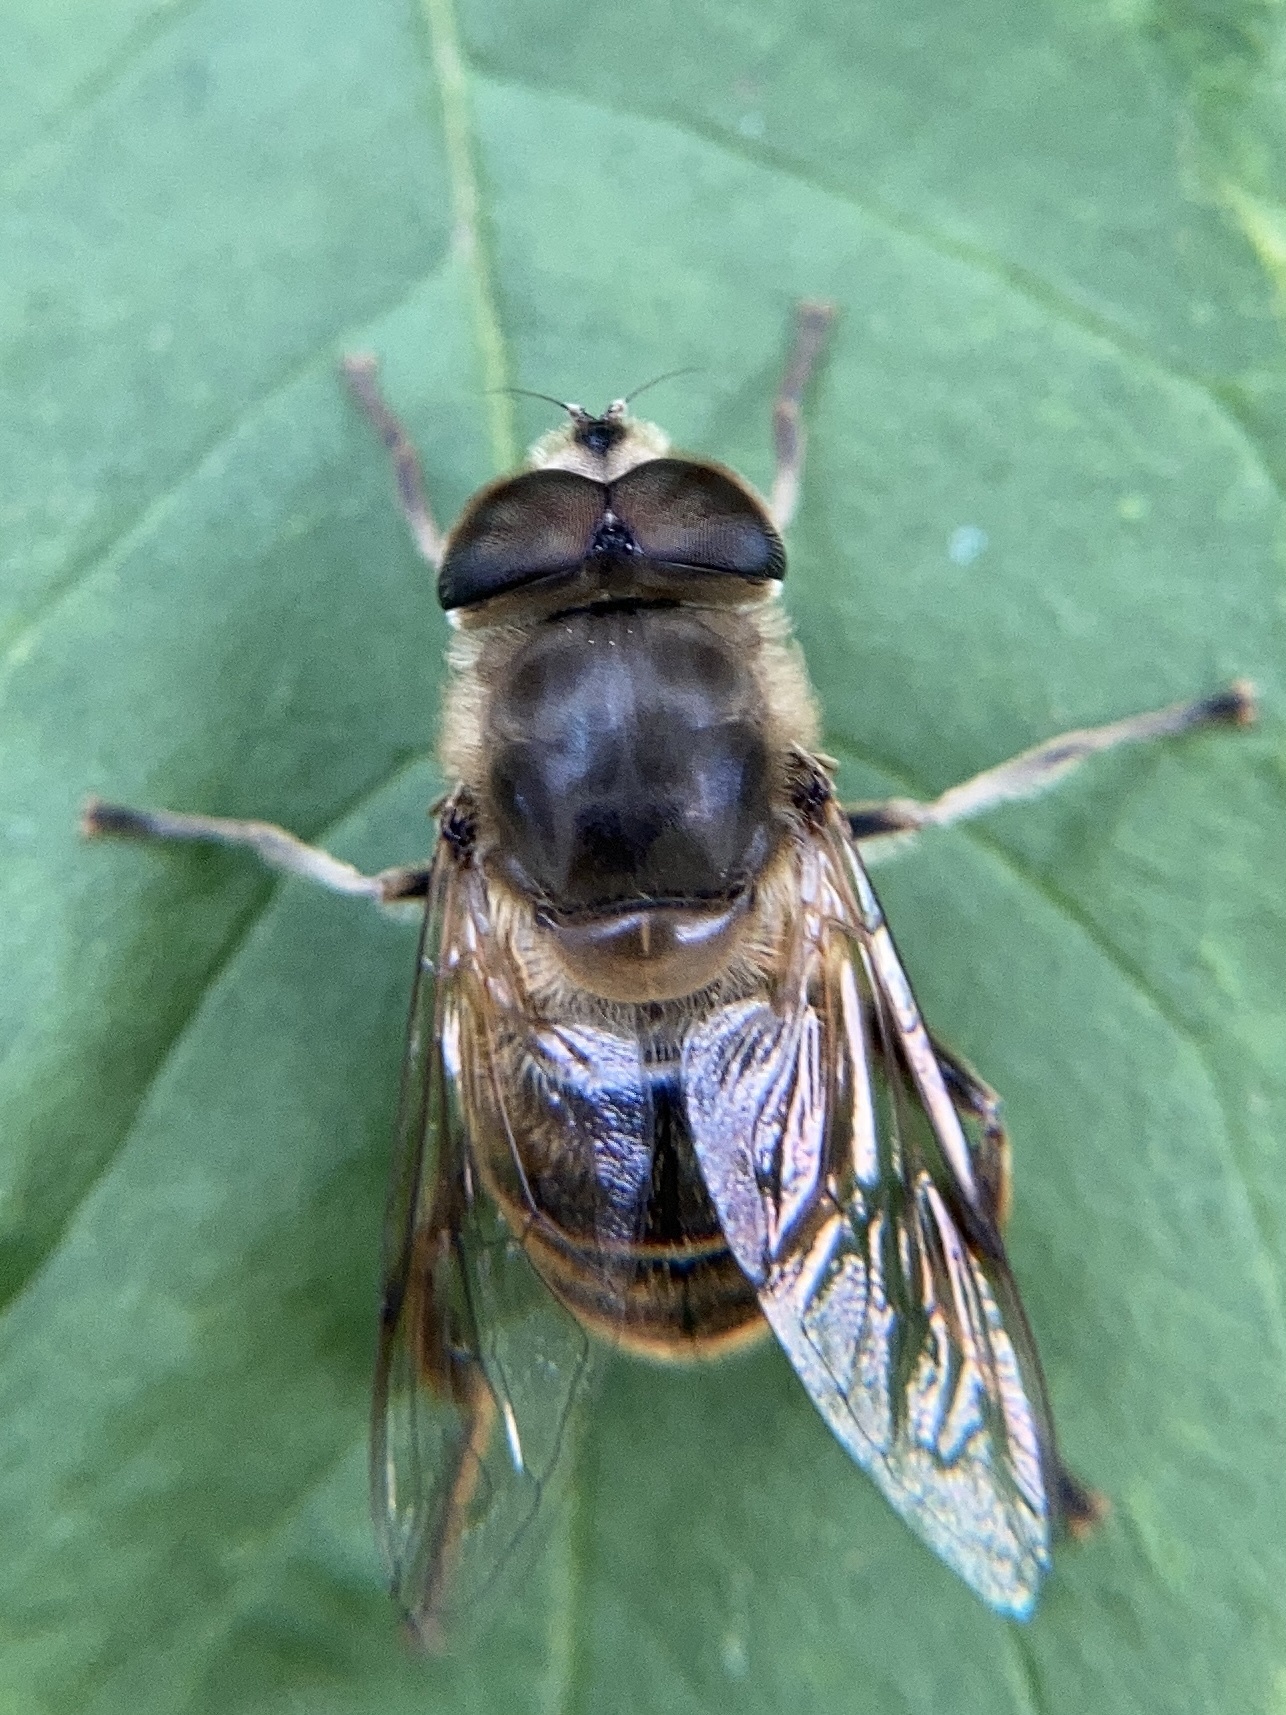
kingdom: Animalia
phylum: Arthropoda
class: Insecta
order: Diptera
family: Syrphidae
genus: Eristalis
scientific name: Eristalis tenax
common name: Drone fly
